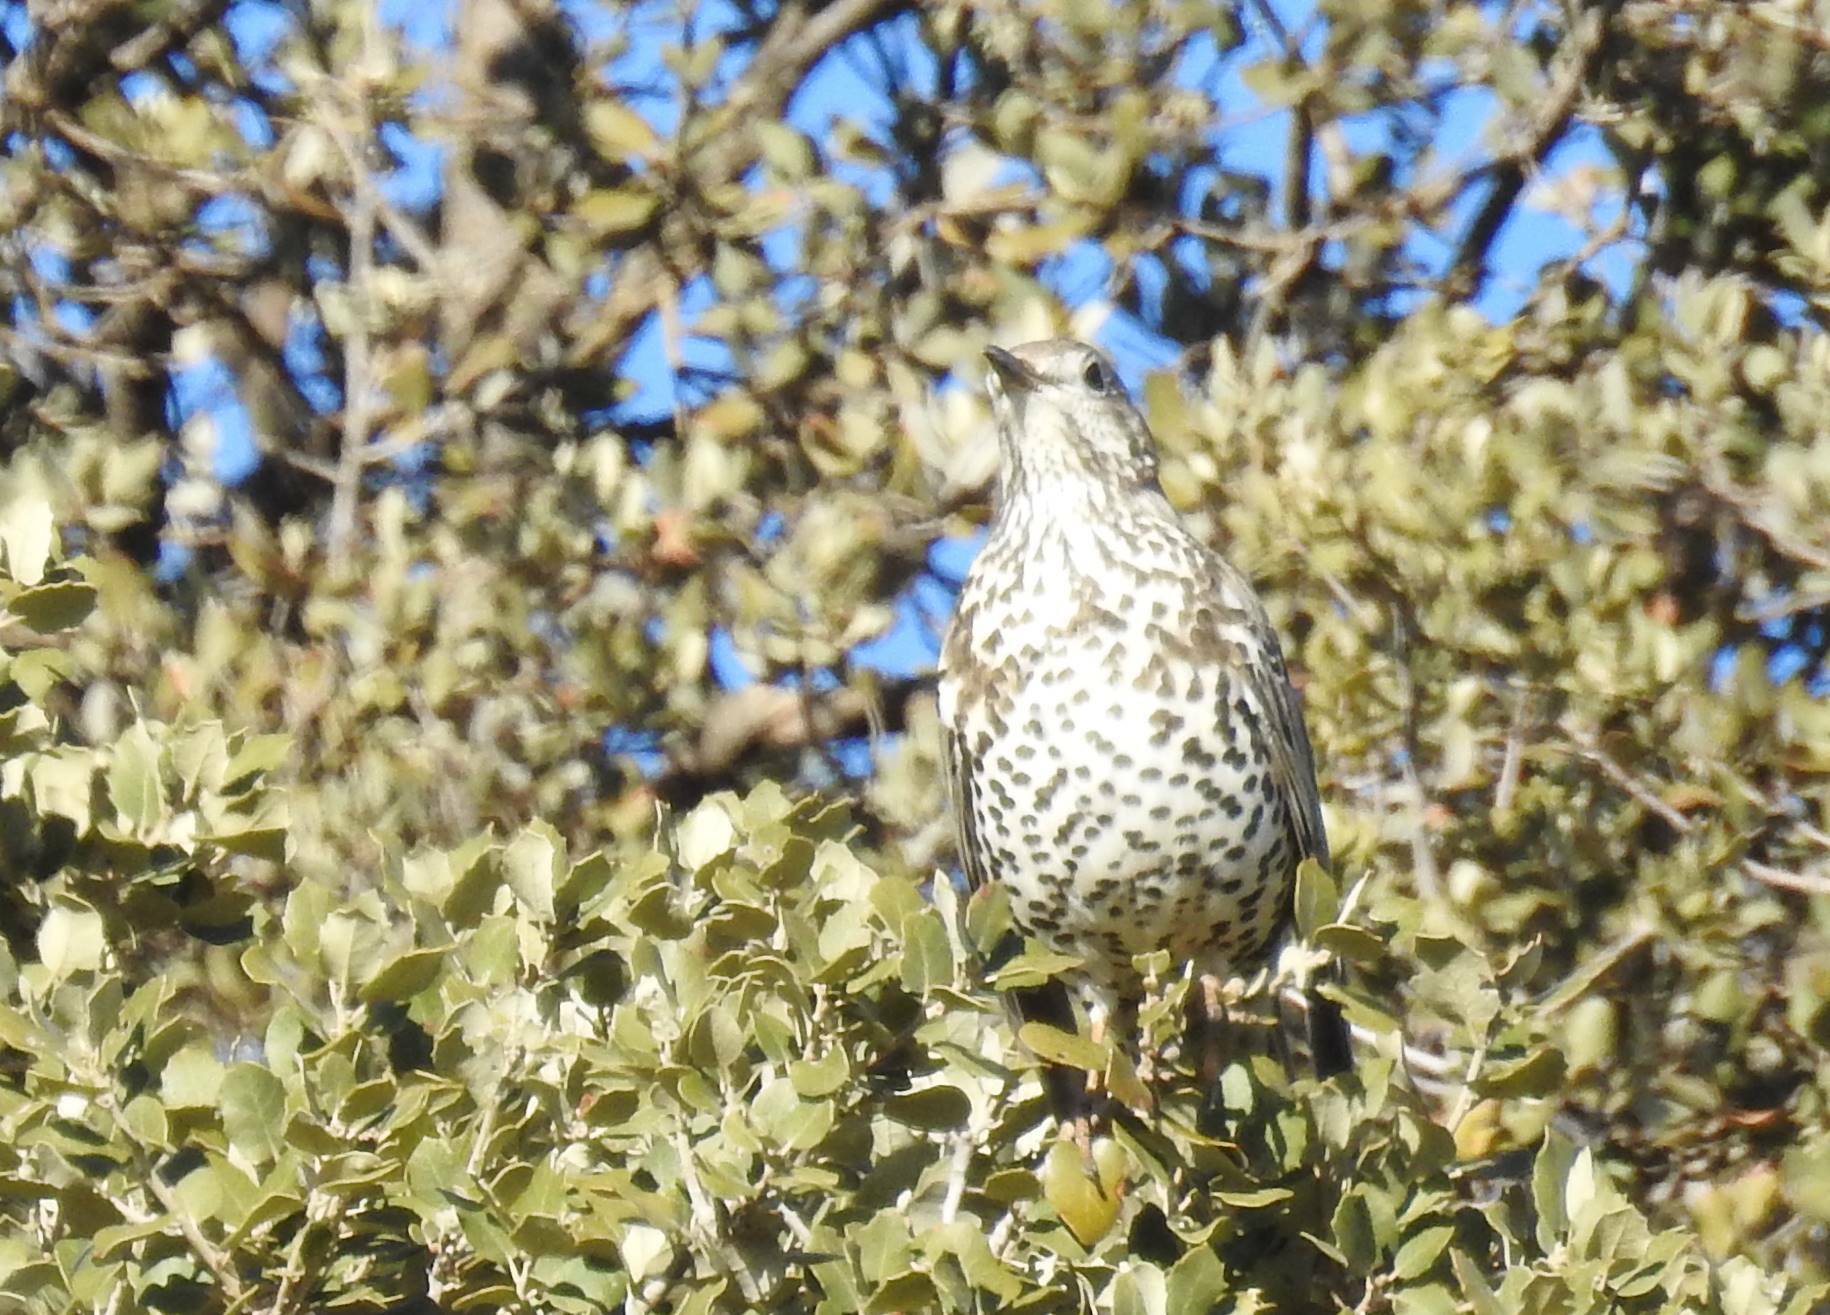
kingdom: Animalia
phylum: Chordata
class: Aves
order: Passeriformes
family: Turdidae
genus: Turdus
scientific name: Turdus viscivorus
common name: Mistle thrush
